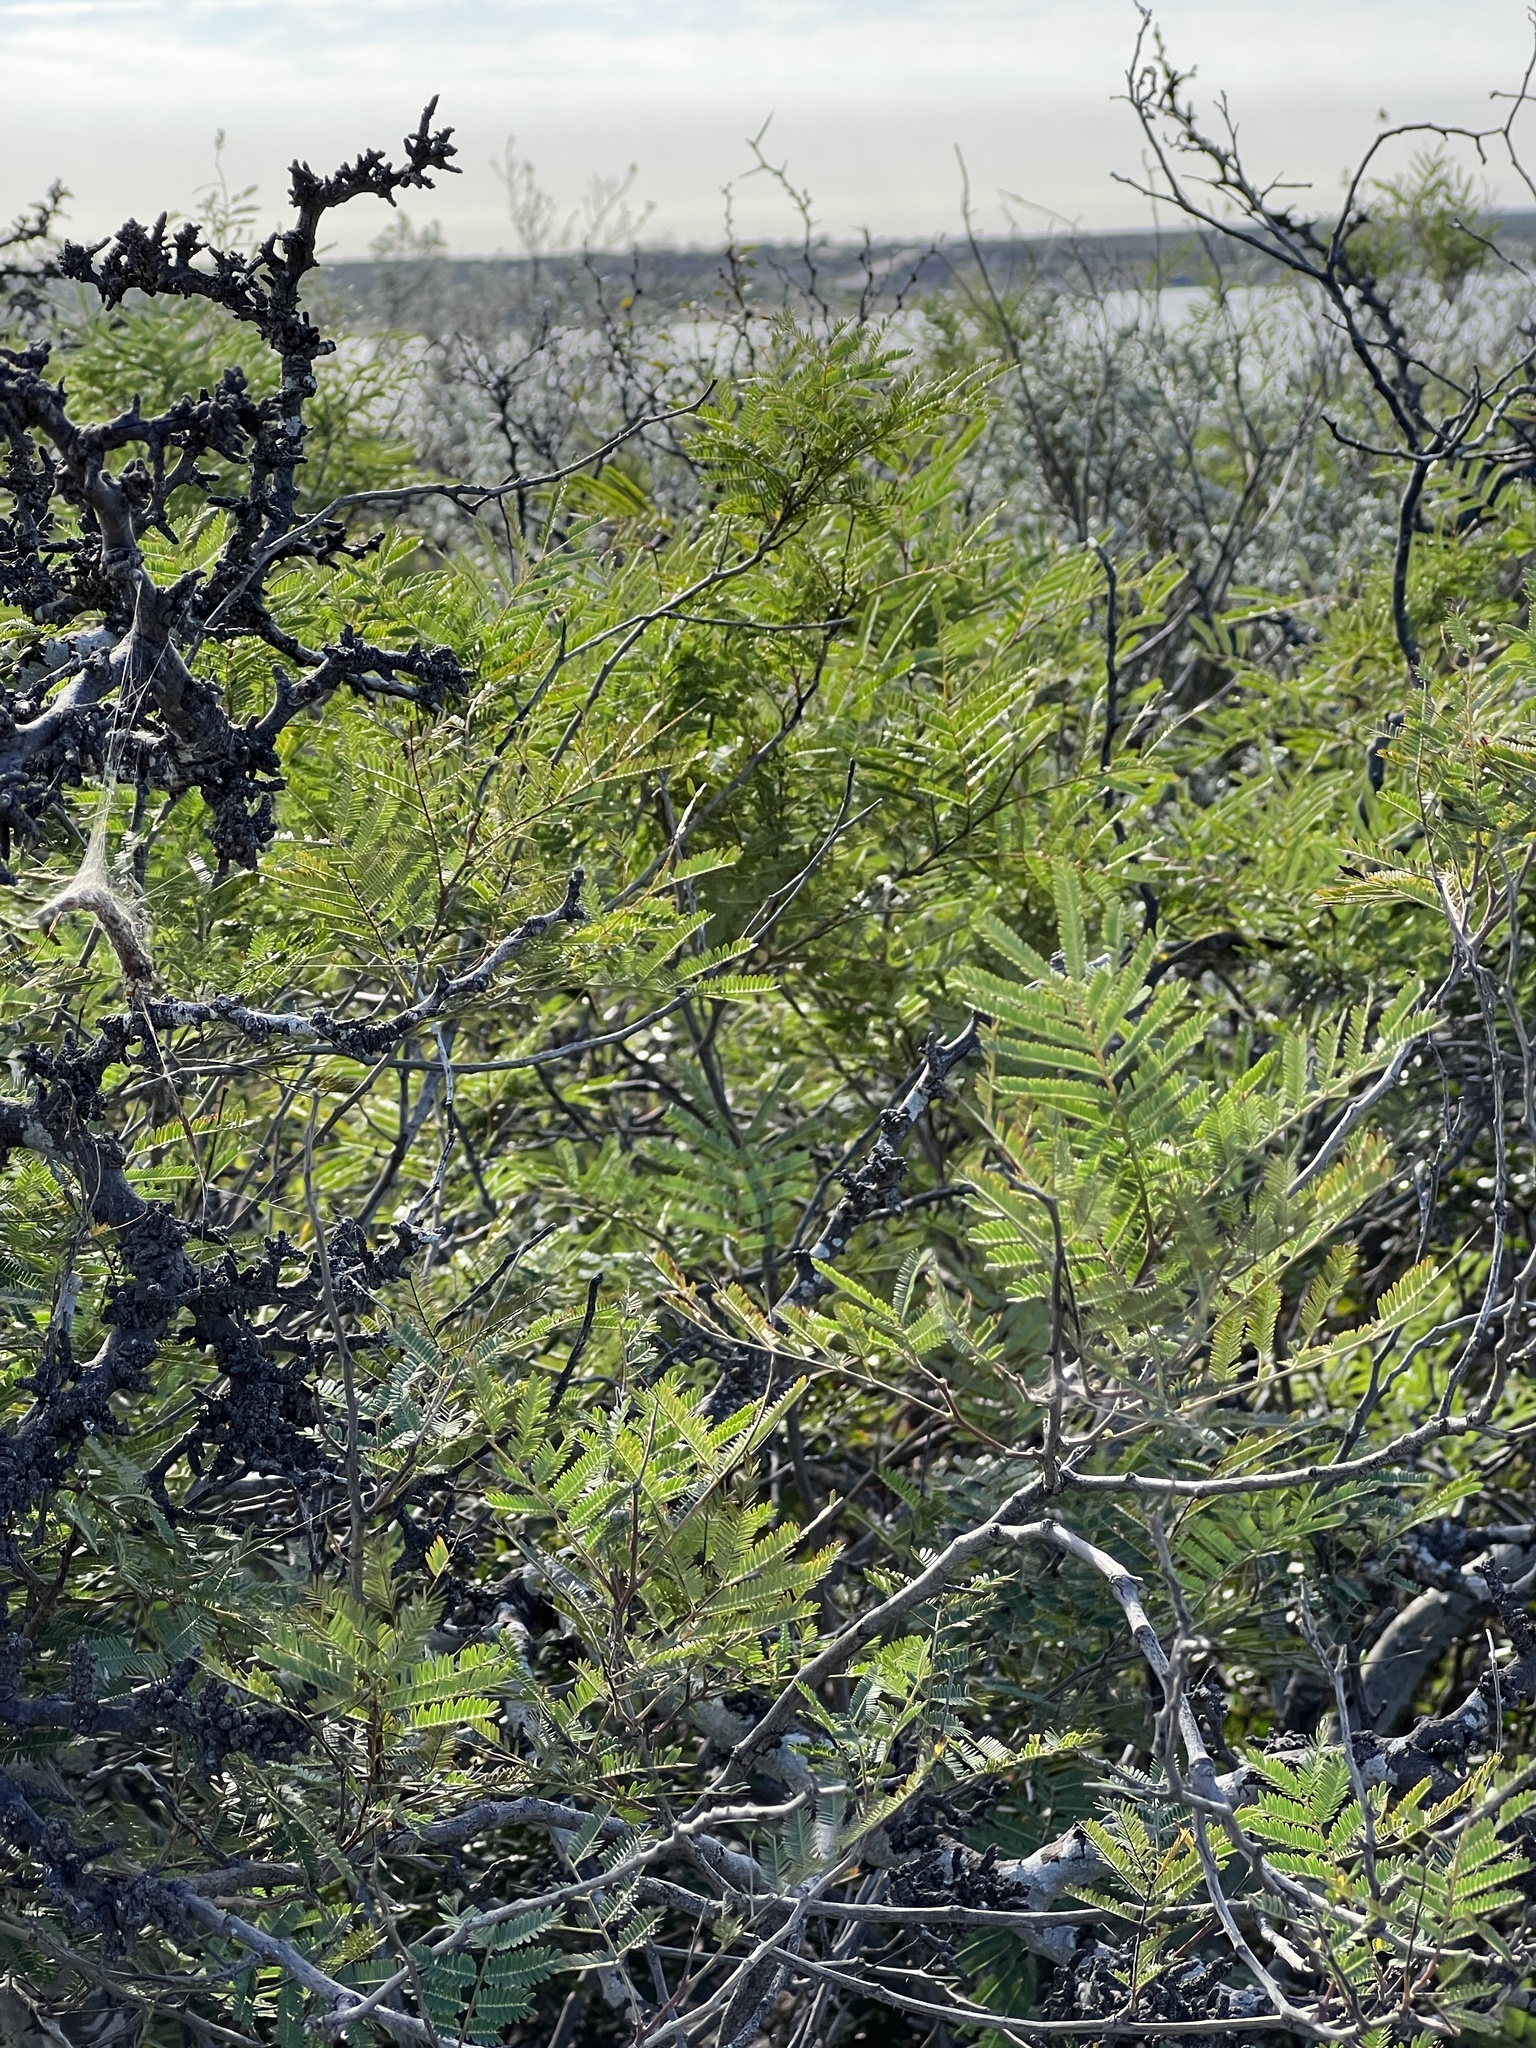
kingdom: Plantae
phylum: Tracheophyta
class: Magnoliopsida
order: Fabales
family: Fabaceae
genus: Senegalia
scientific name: Senegalia berlandieri
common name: Berlandier acacia
